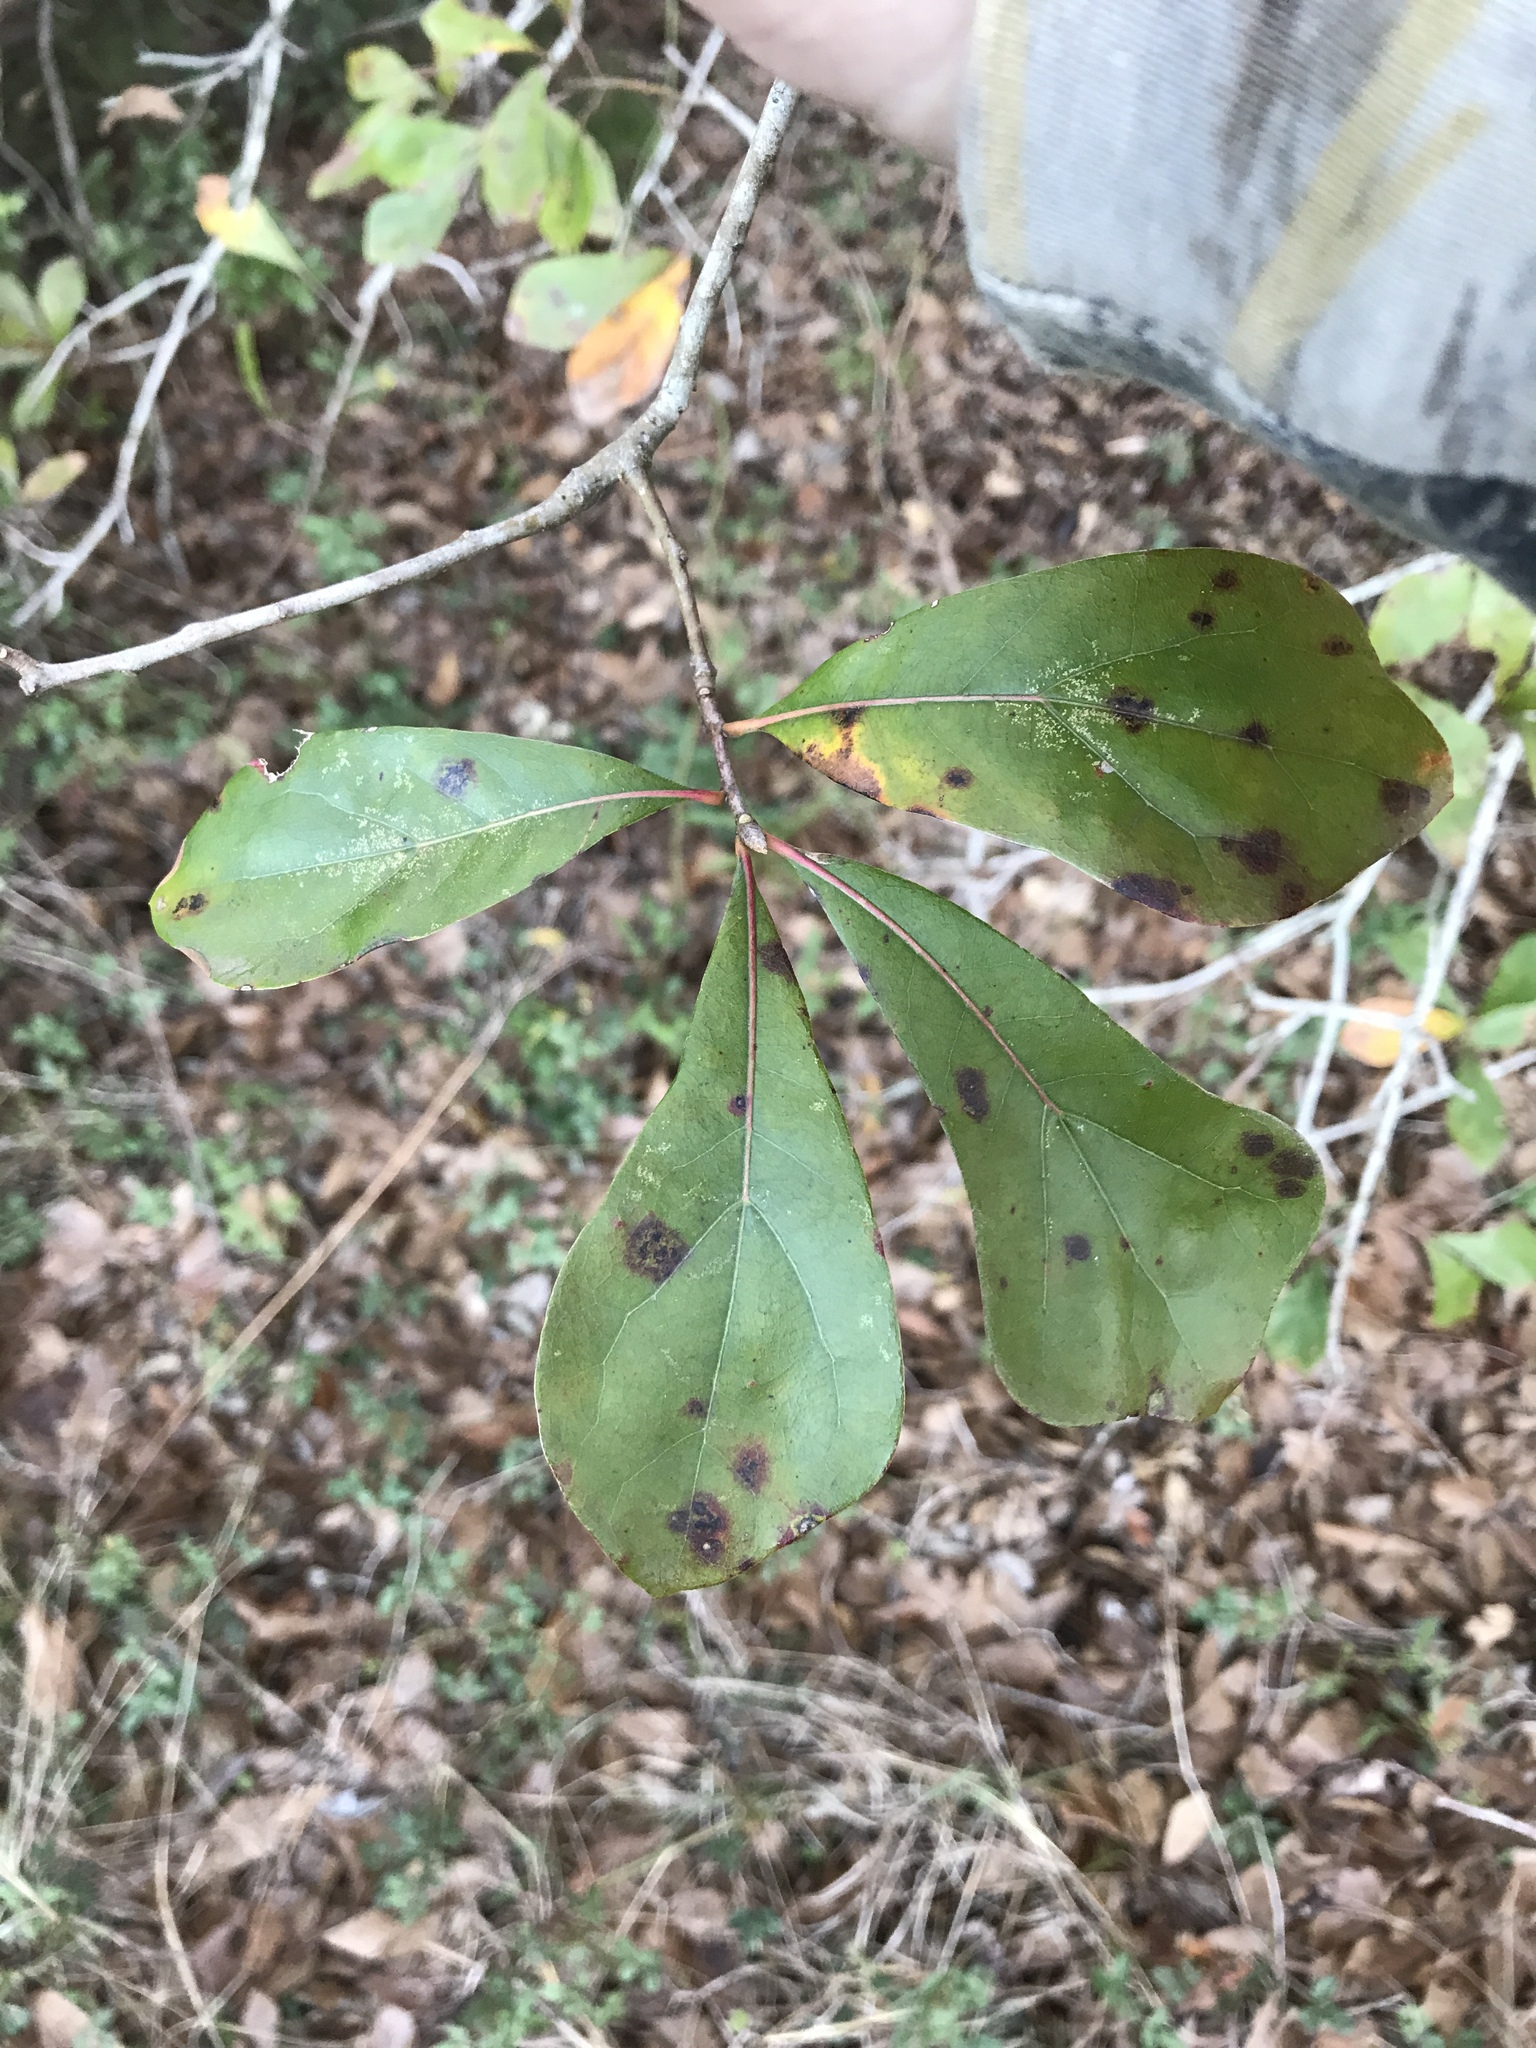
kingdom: Plantae
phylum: Tracheophyta
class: Magnoliopsida
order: Fagales
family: Fagaceae
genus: Quercus
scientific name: Quercus nigra
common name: Water oak
